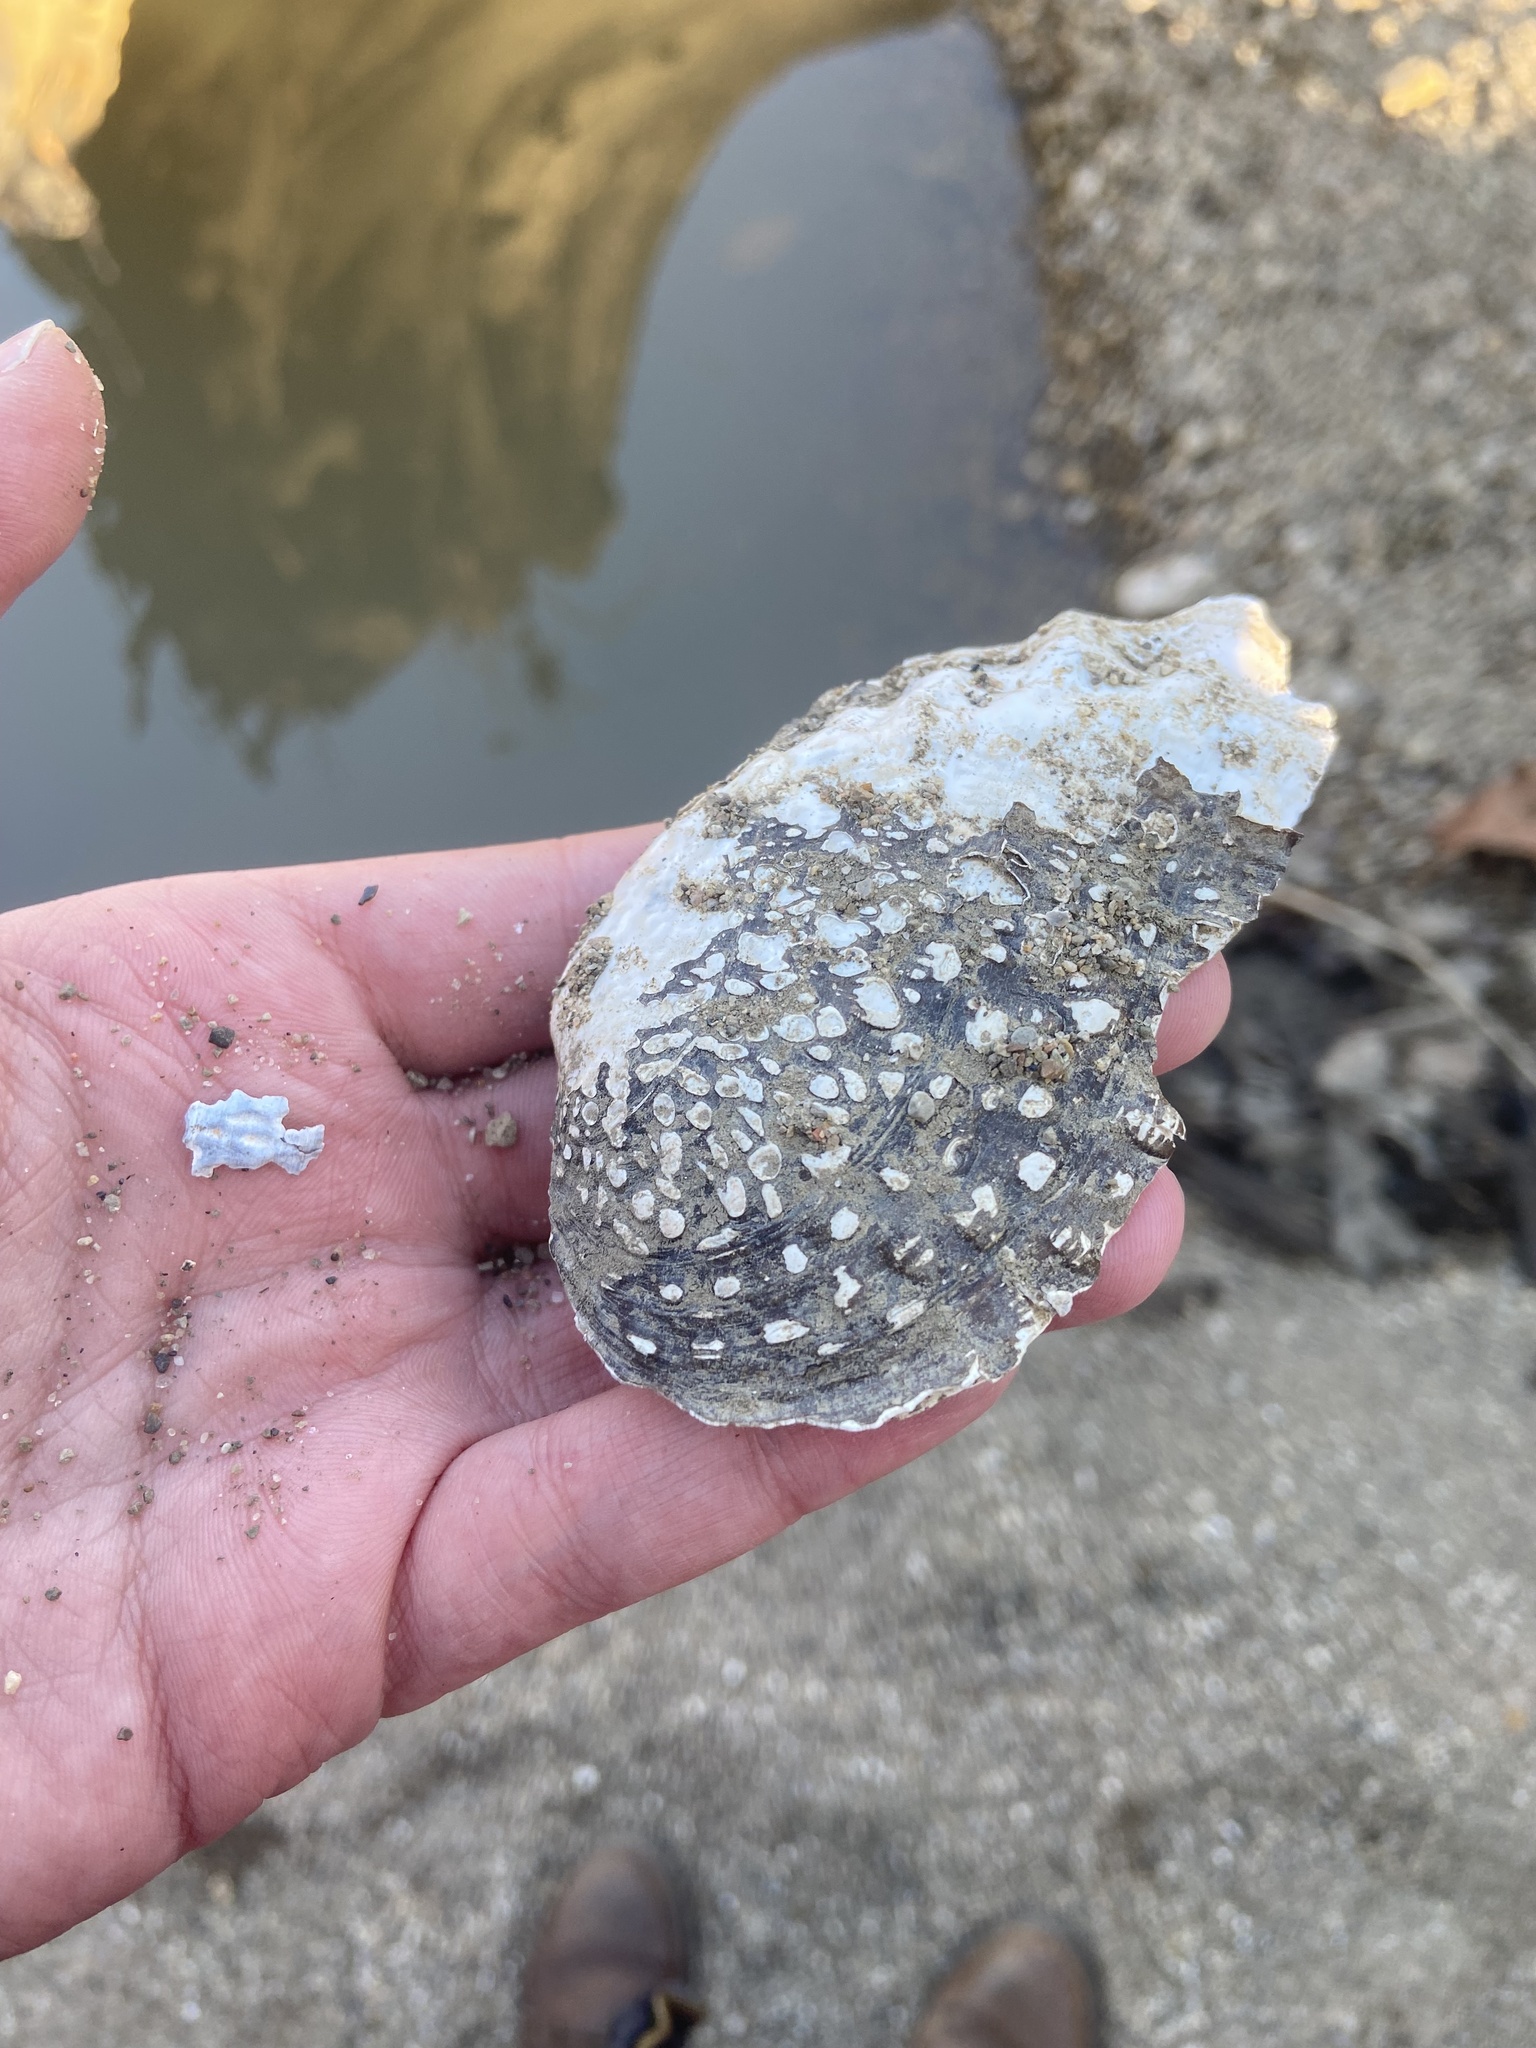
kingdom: Animalia
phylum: Mollusca
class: Bivalvia
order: Unionida
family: Unionidae
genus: Tritogonia
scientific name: Tritogonia verrucosa
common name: Pistolgrip
